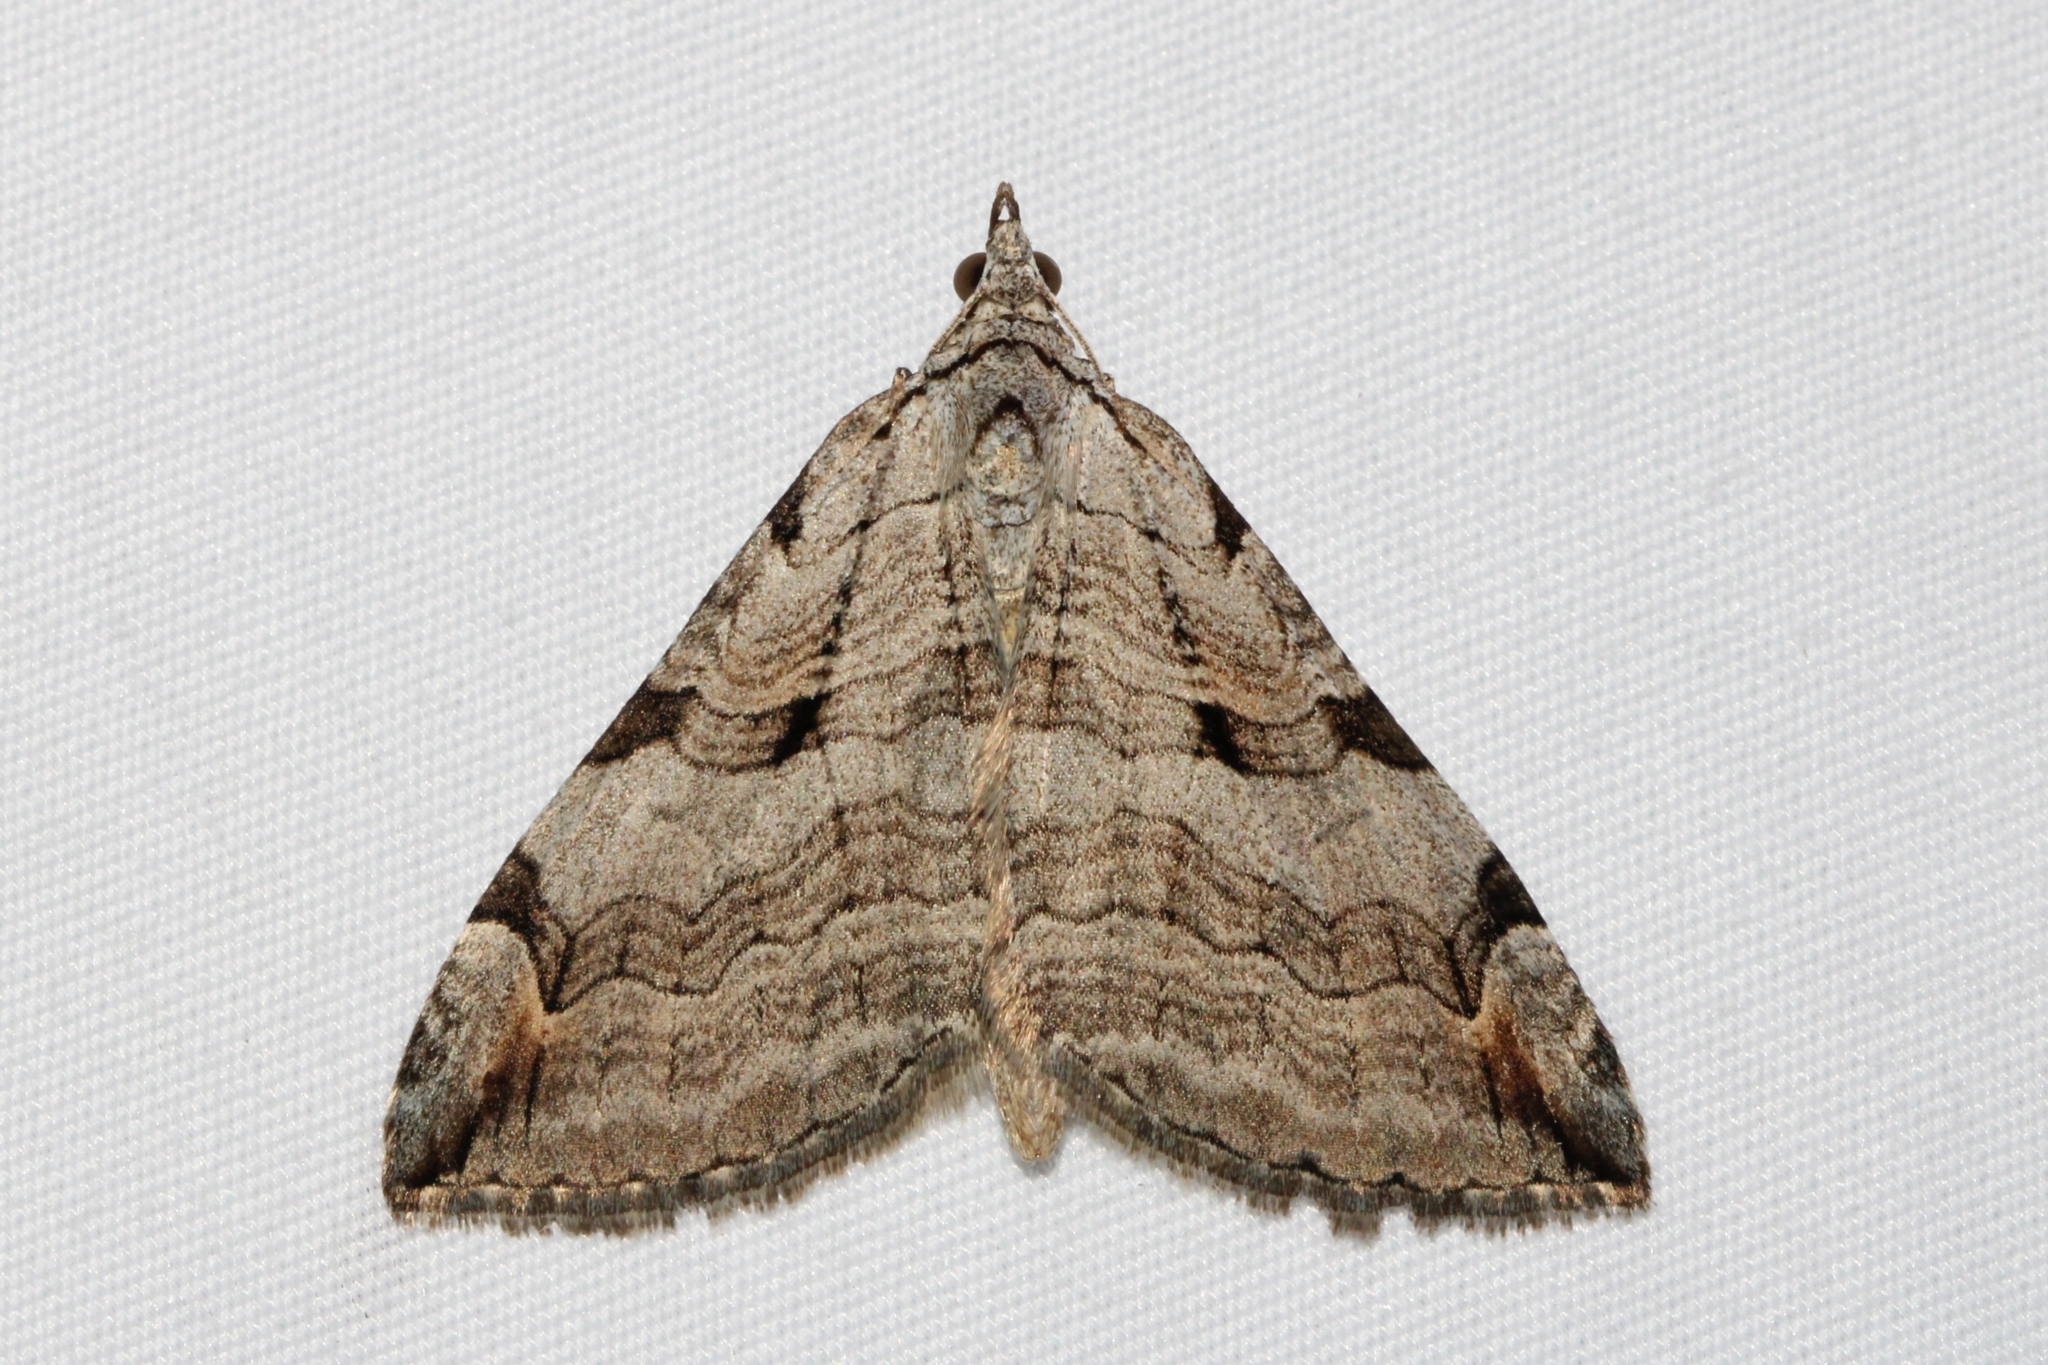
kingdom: Animalia
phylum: Arthropoda
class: Insecta
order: Lepidoptera
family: Geometridae
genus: Aplocera
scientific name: Aplocera plagiata
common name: Treble-bar
